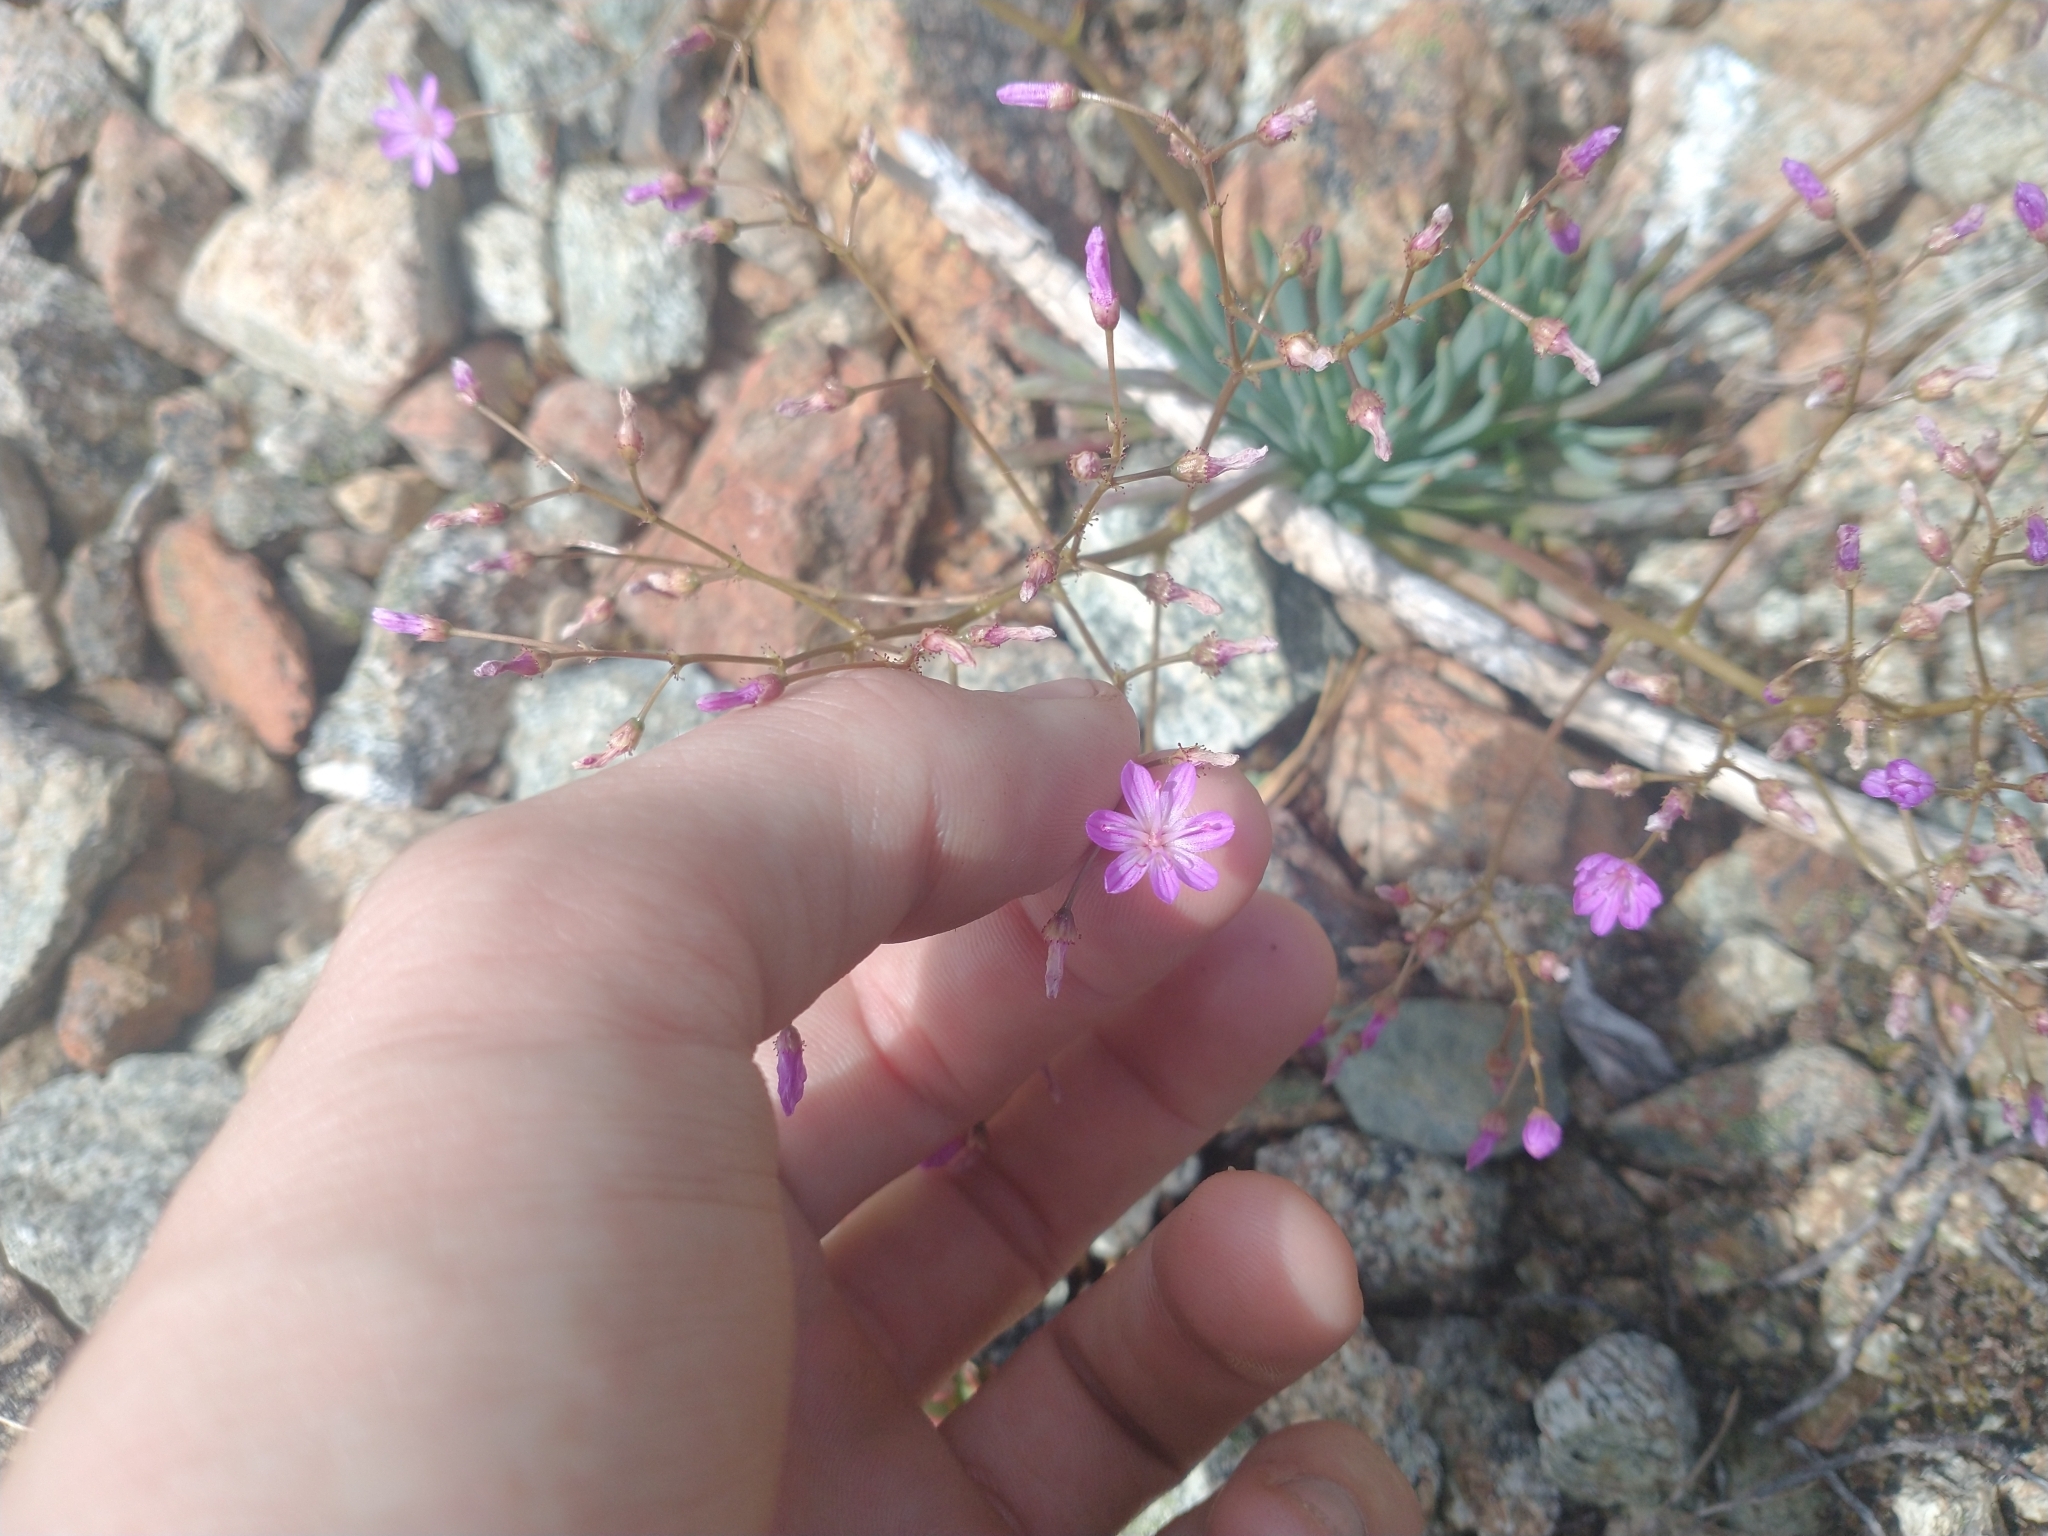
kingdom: Plantae
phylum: Tracheophyta
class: Magnoliopsida
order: Caryophyllales
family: Montiaceae
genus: Lewisia
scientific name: Lewisia leeana
